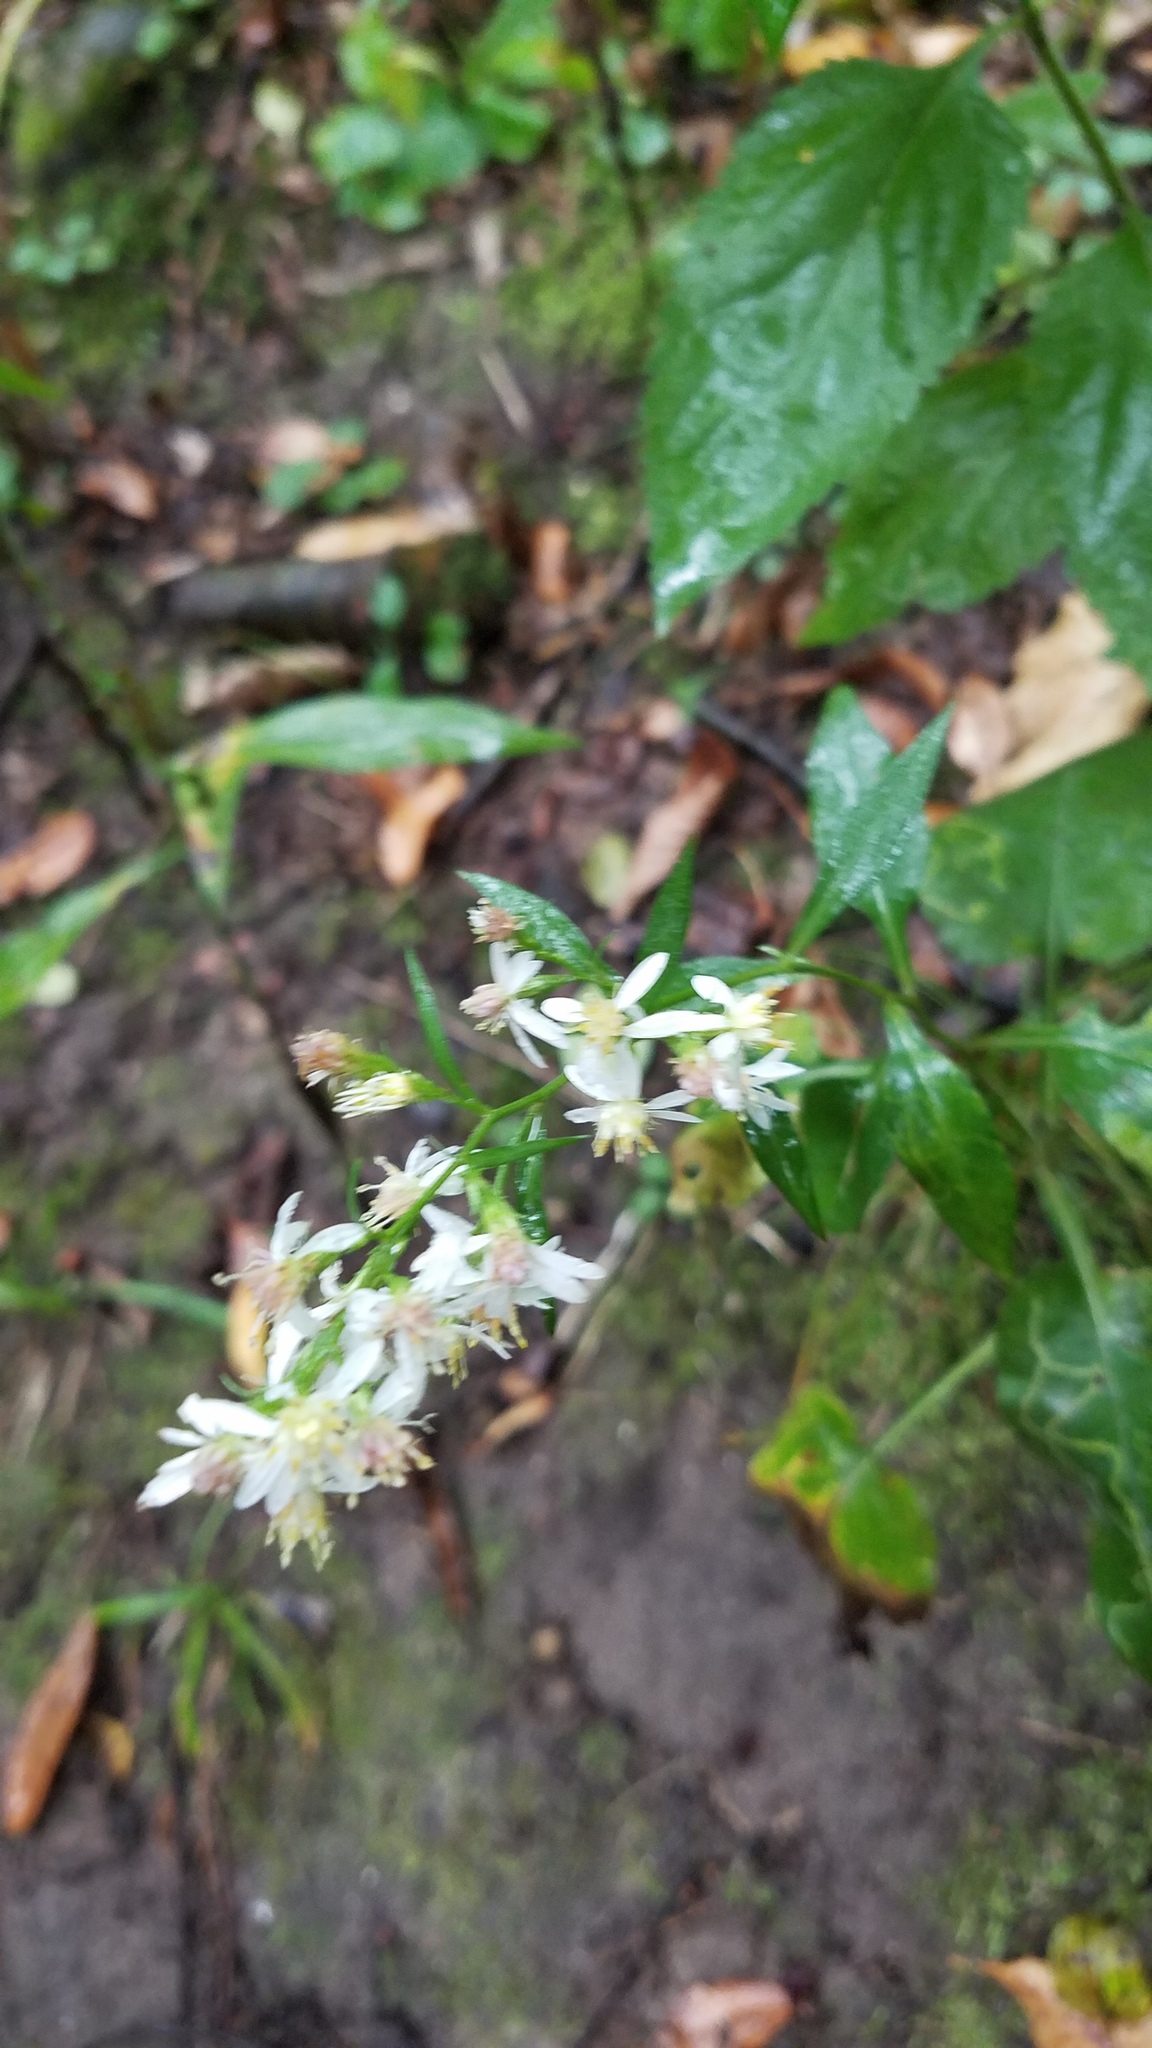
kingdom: Plantae
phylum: Tracheophyta
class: Magnoliopsida
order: Asterales
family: Asteraceae
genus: Symphyotrichum
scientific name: Symphyotrichum urophyllum
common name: Arrow-leaved aster
